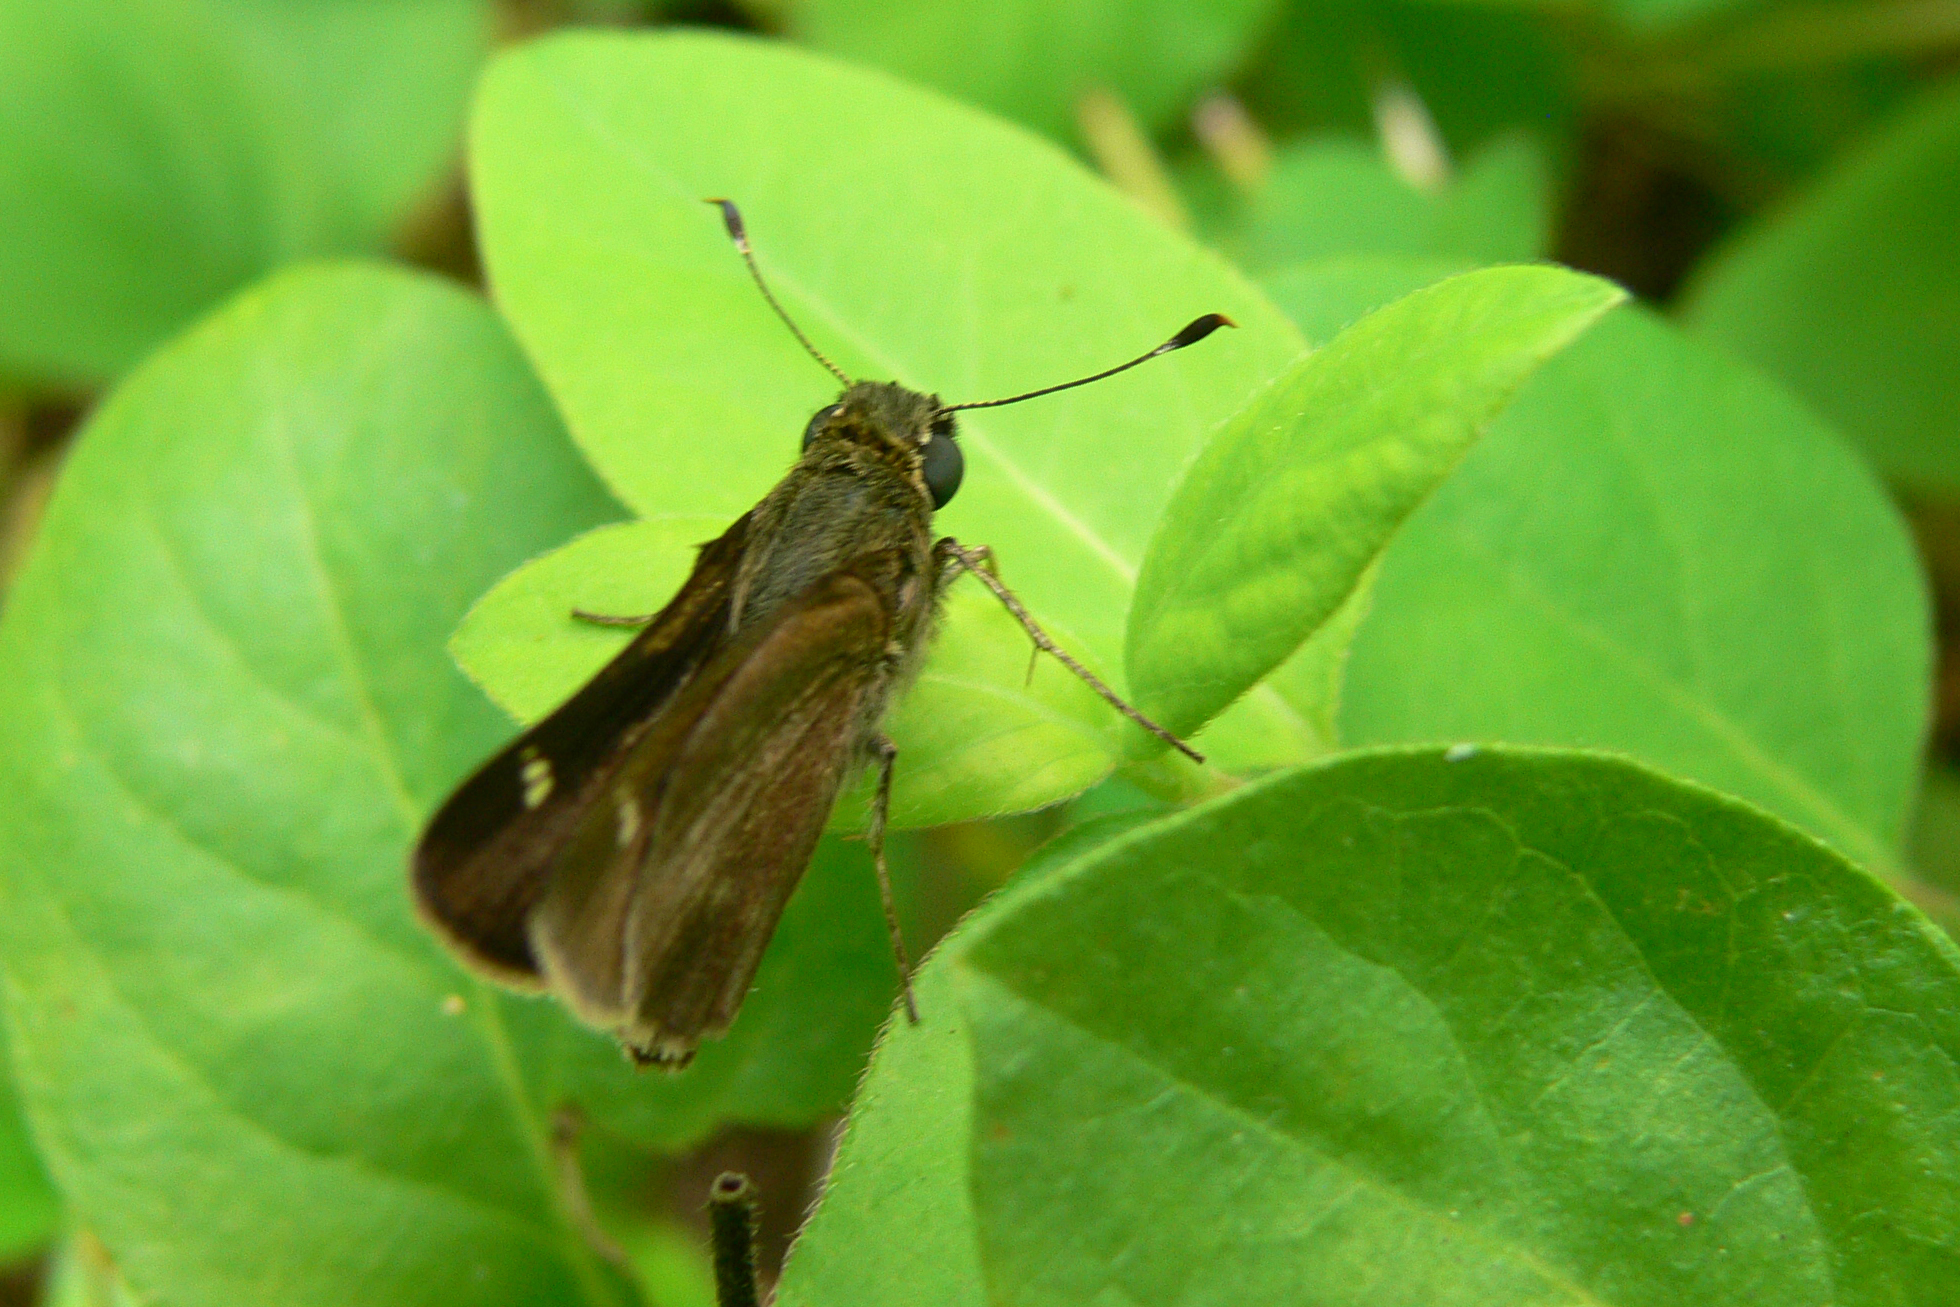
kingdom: Animalia
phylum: Arthropoda
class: Insecta
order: Lepidoptera
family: Hesperiidae
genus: Vernia
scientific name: Vernia verna
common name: Little glassywing
